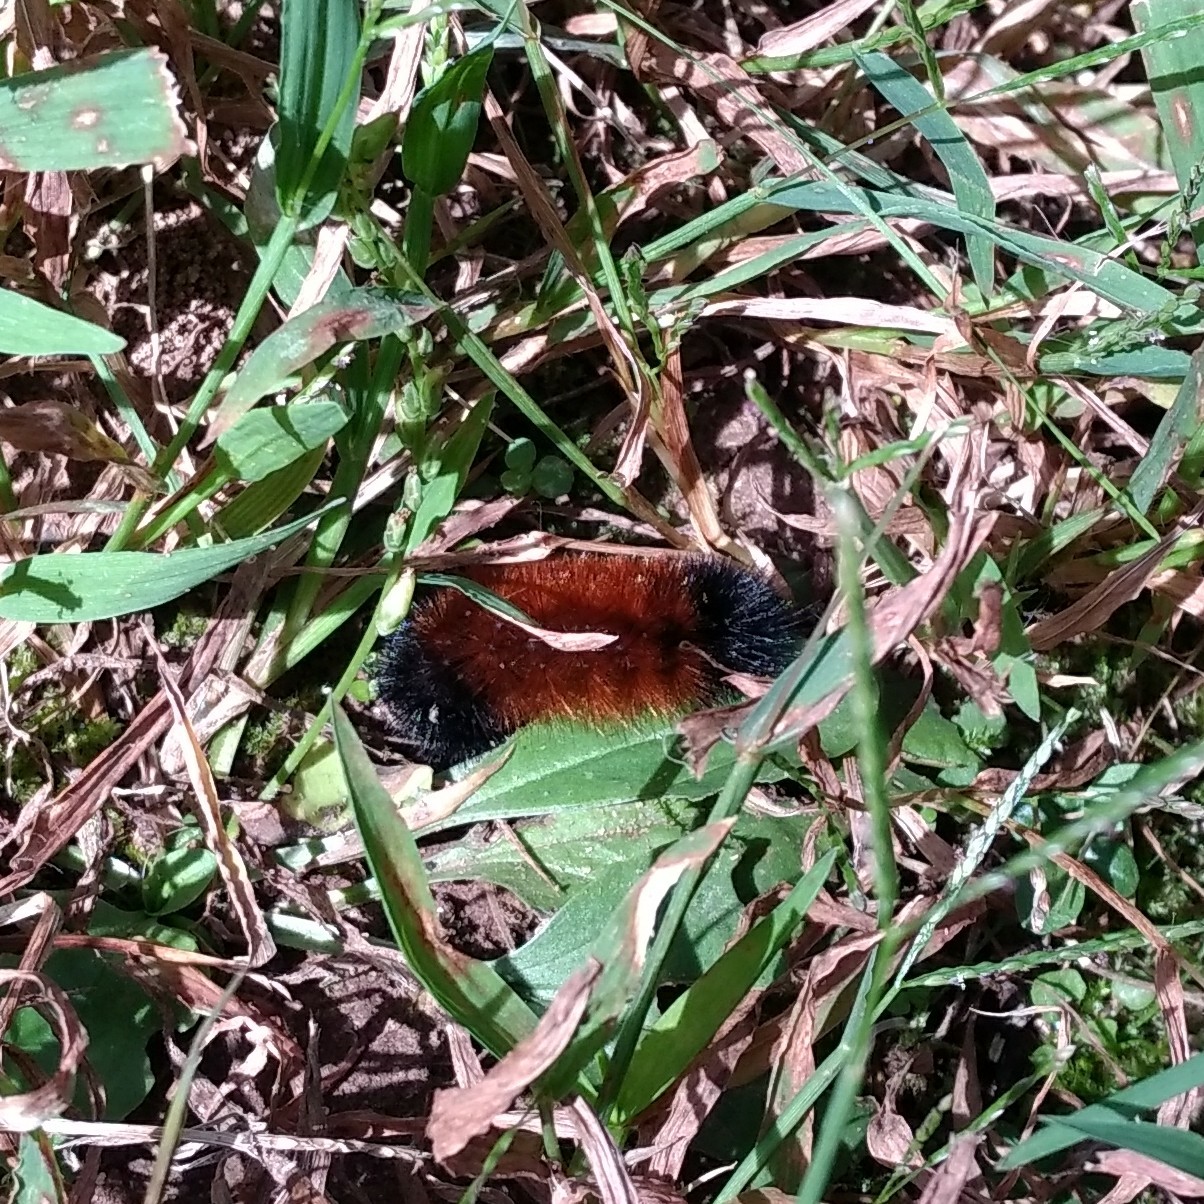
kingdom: Animalia
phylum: Arthropoda
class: Insecta
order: Lepidoptera
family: Erebidae
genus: Pyrrharctia
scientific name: Pyrrharctia isabella
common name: Isabella tiger moth
